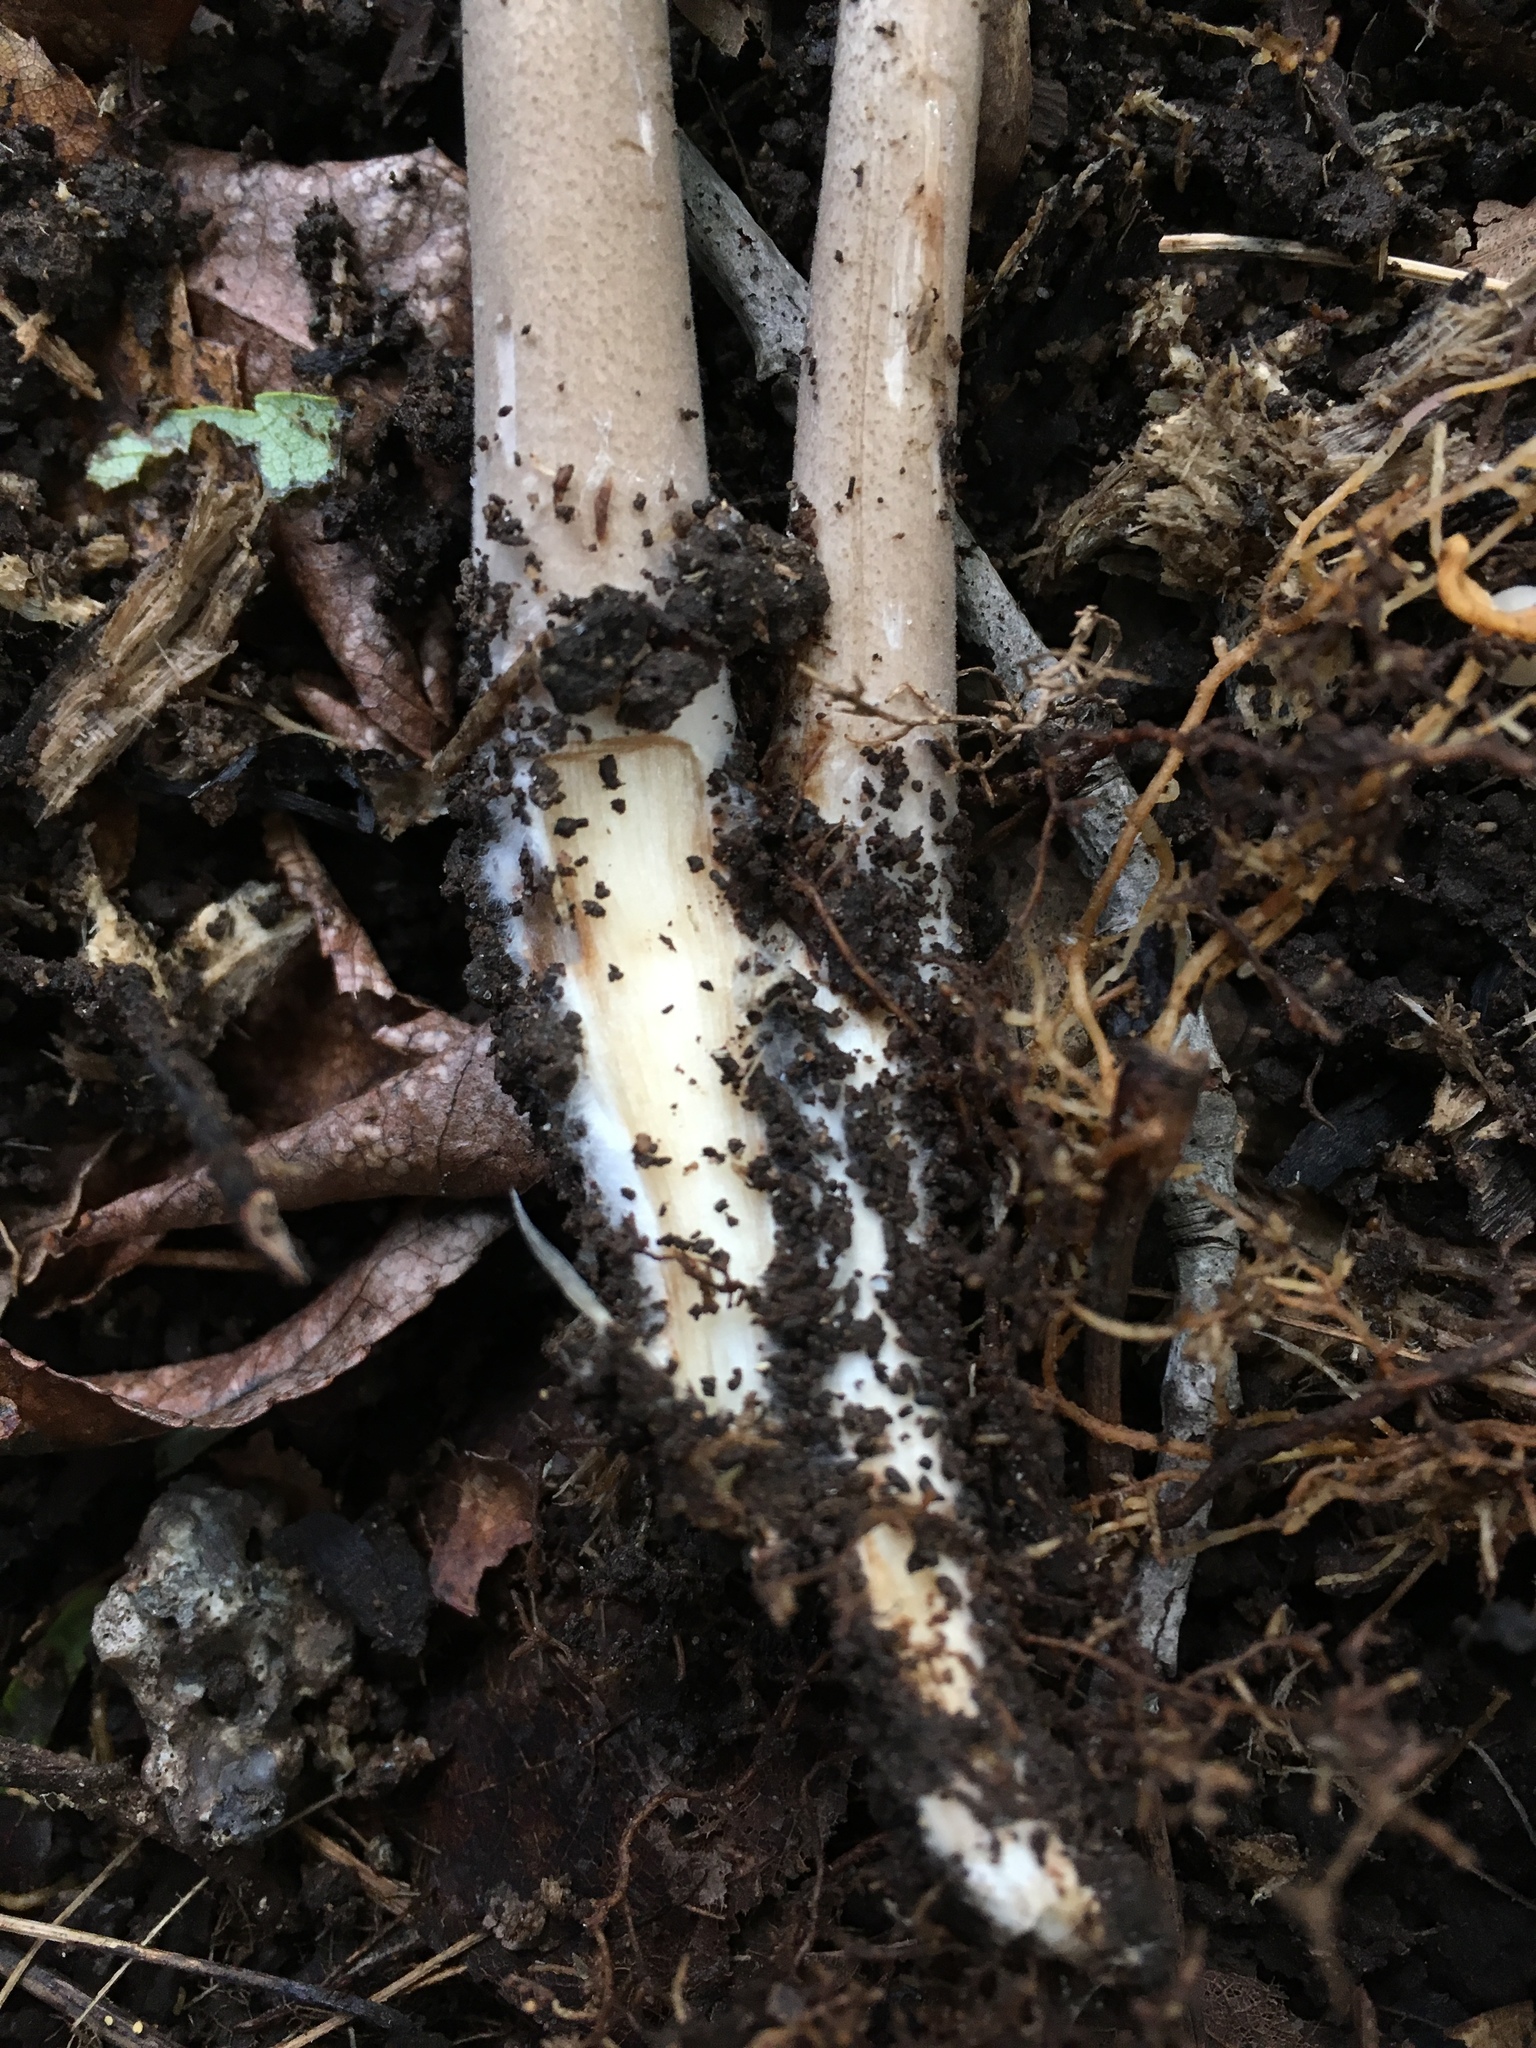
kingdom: Fungi
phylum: Basidiomycota
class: Agaricomycetes
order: Agaricales
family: Physalacriaceae
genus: Hymenopellis
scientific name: Hymenopellis radicata
